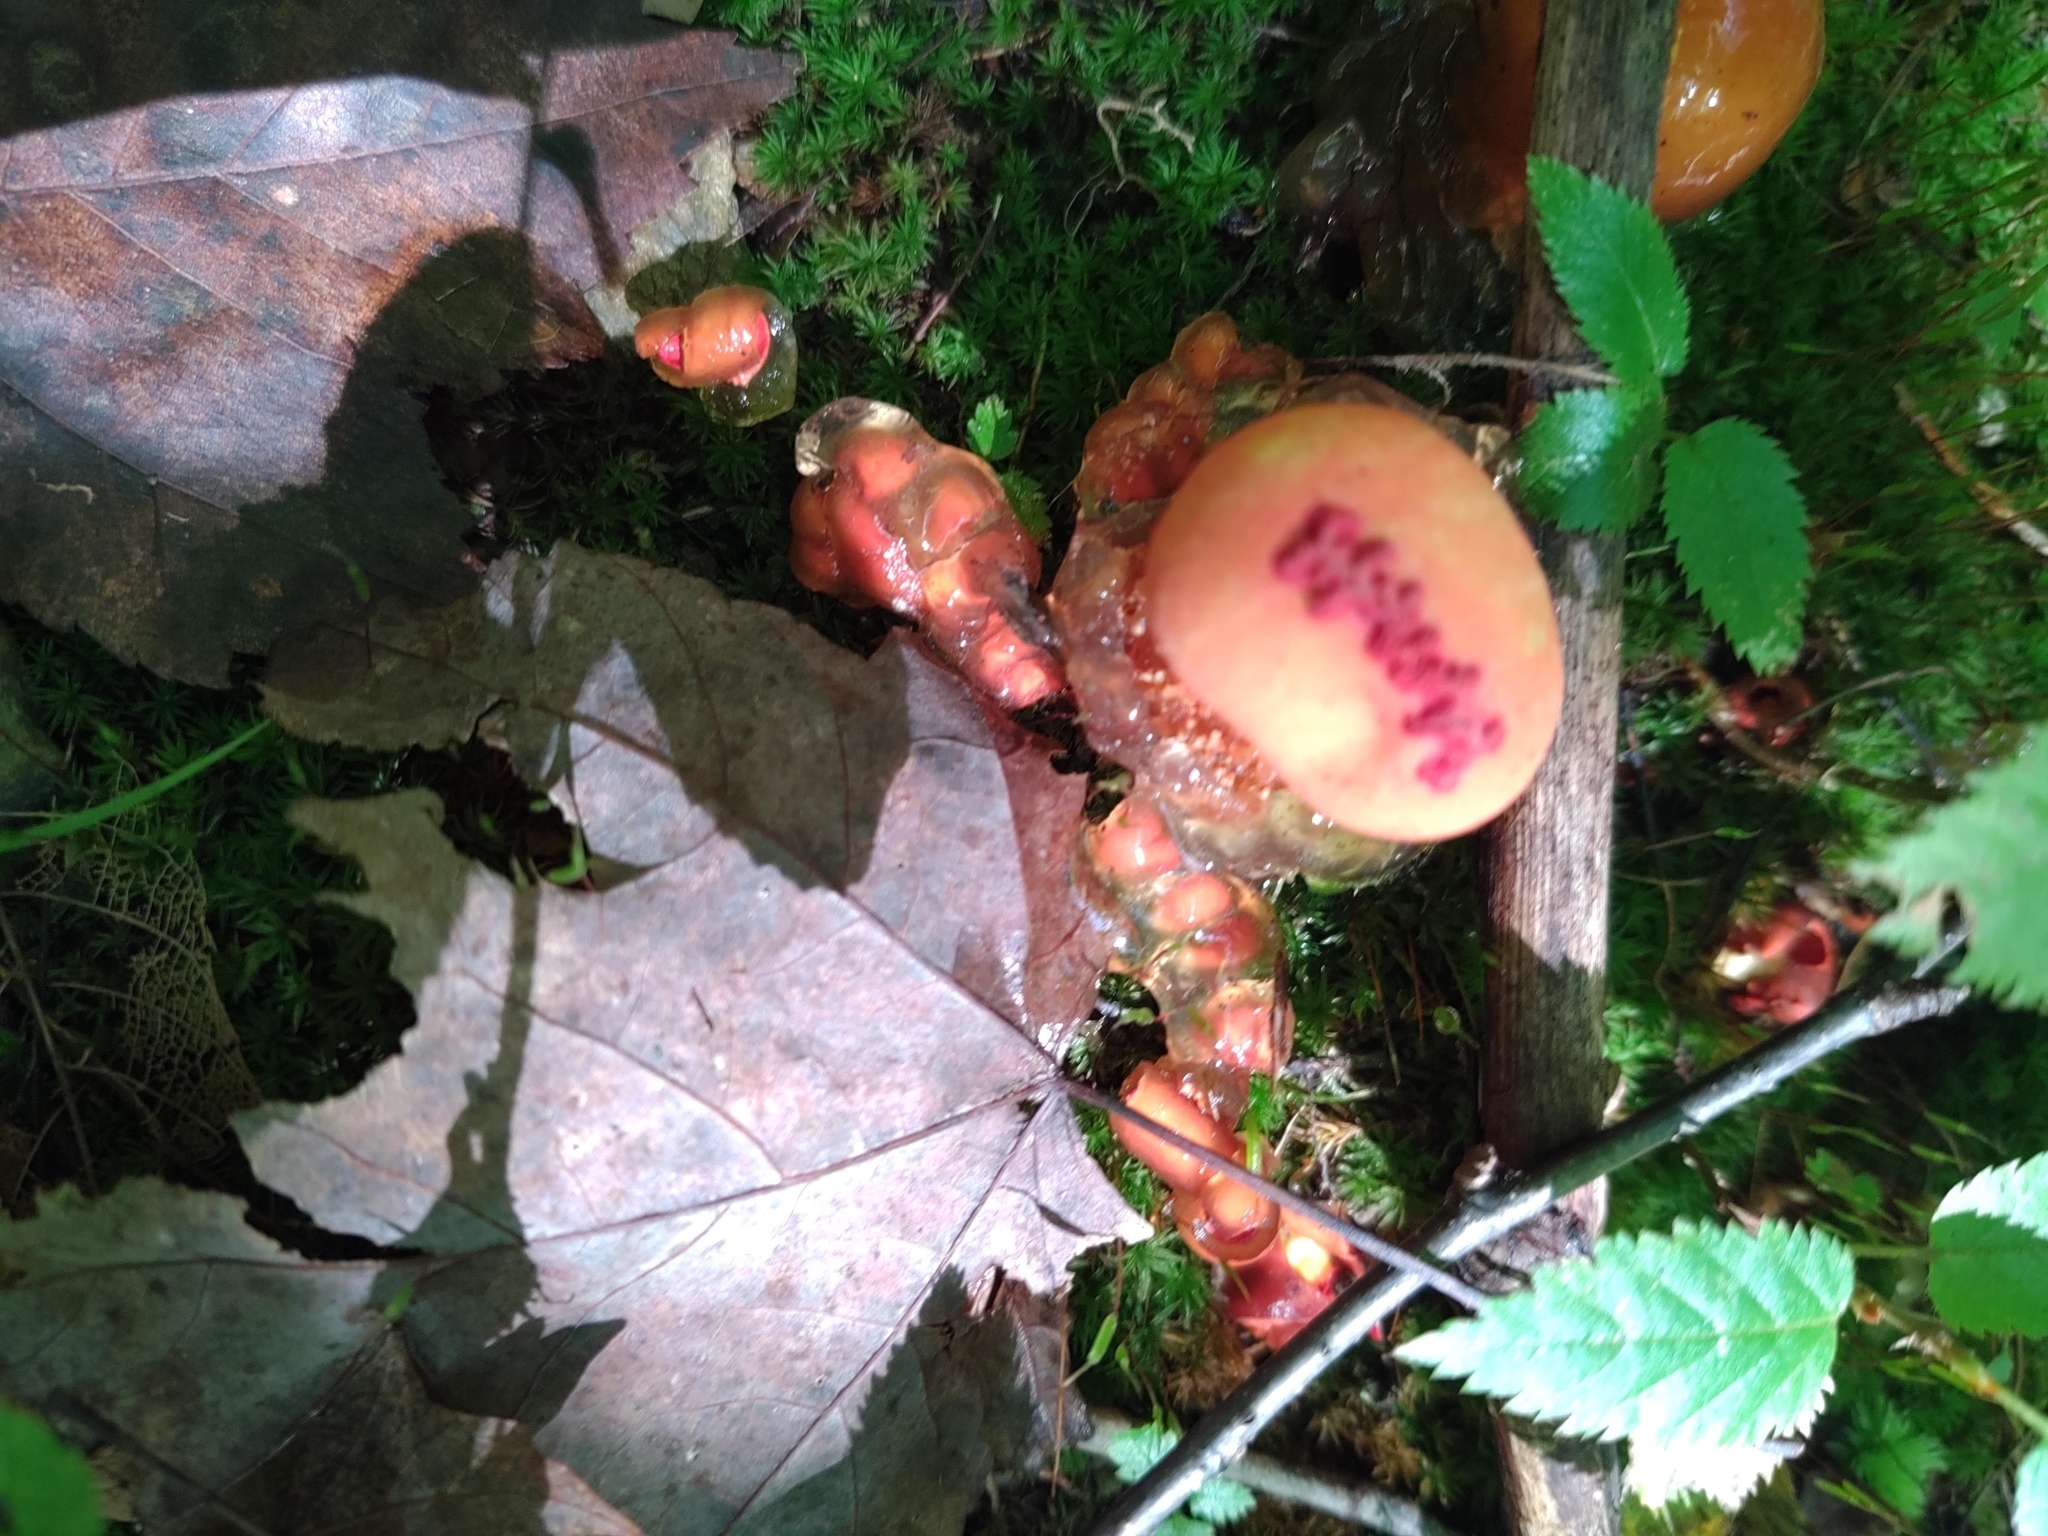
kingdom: Fungi
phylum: Basidiomycota
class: Agaricomycetes
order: Boletales
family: Calostomataceae
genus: Calostoma
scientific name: Calostoma cinnabarinum
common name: Stalked puffball-in-aspic
